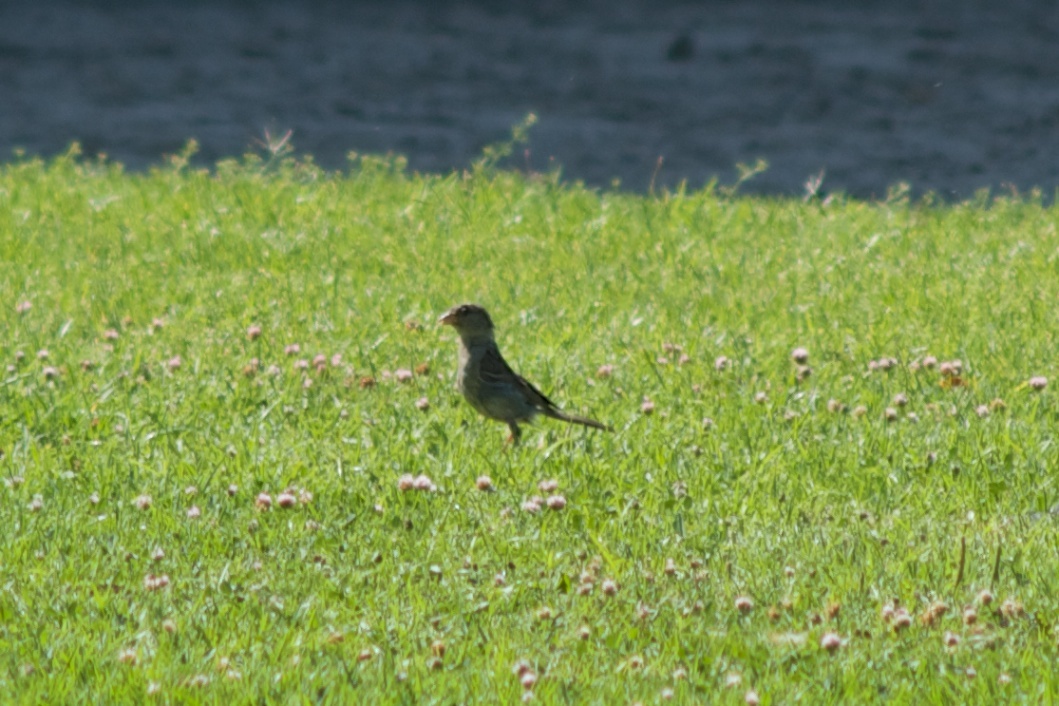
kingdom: Animalia
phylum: Chordata
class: Aves
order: Passeriformes
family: Passeridae
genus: Passer
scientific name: Passer domesticus
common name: House sparrow
